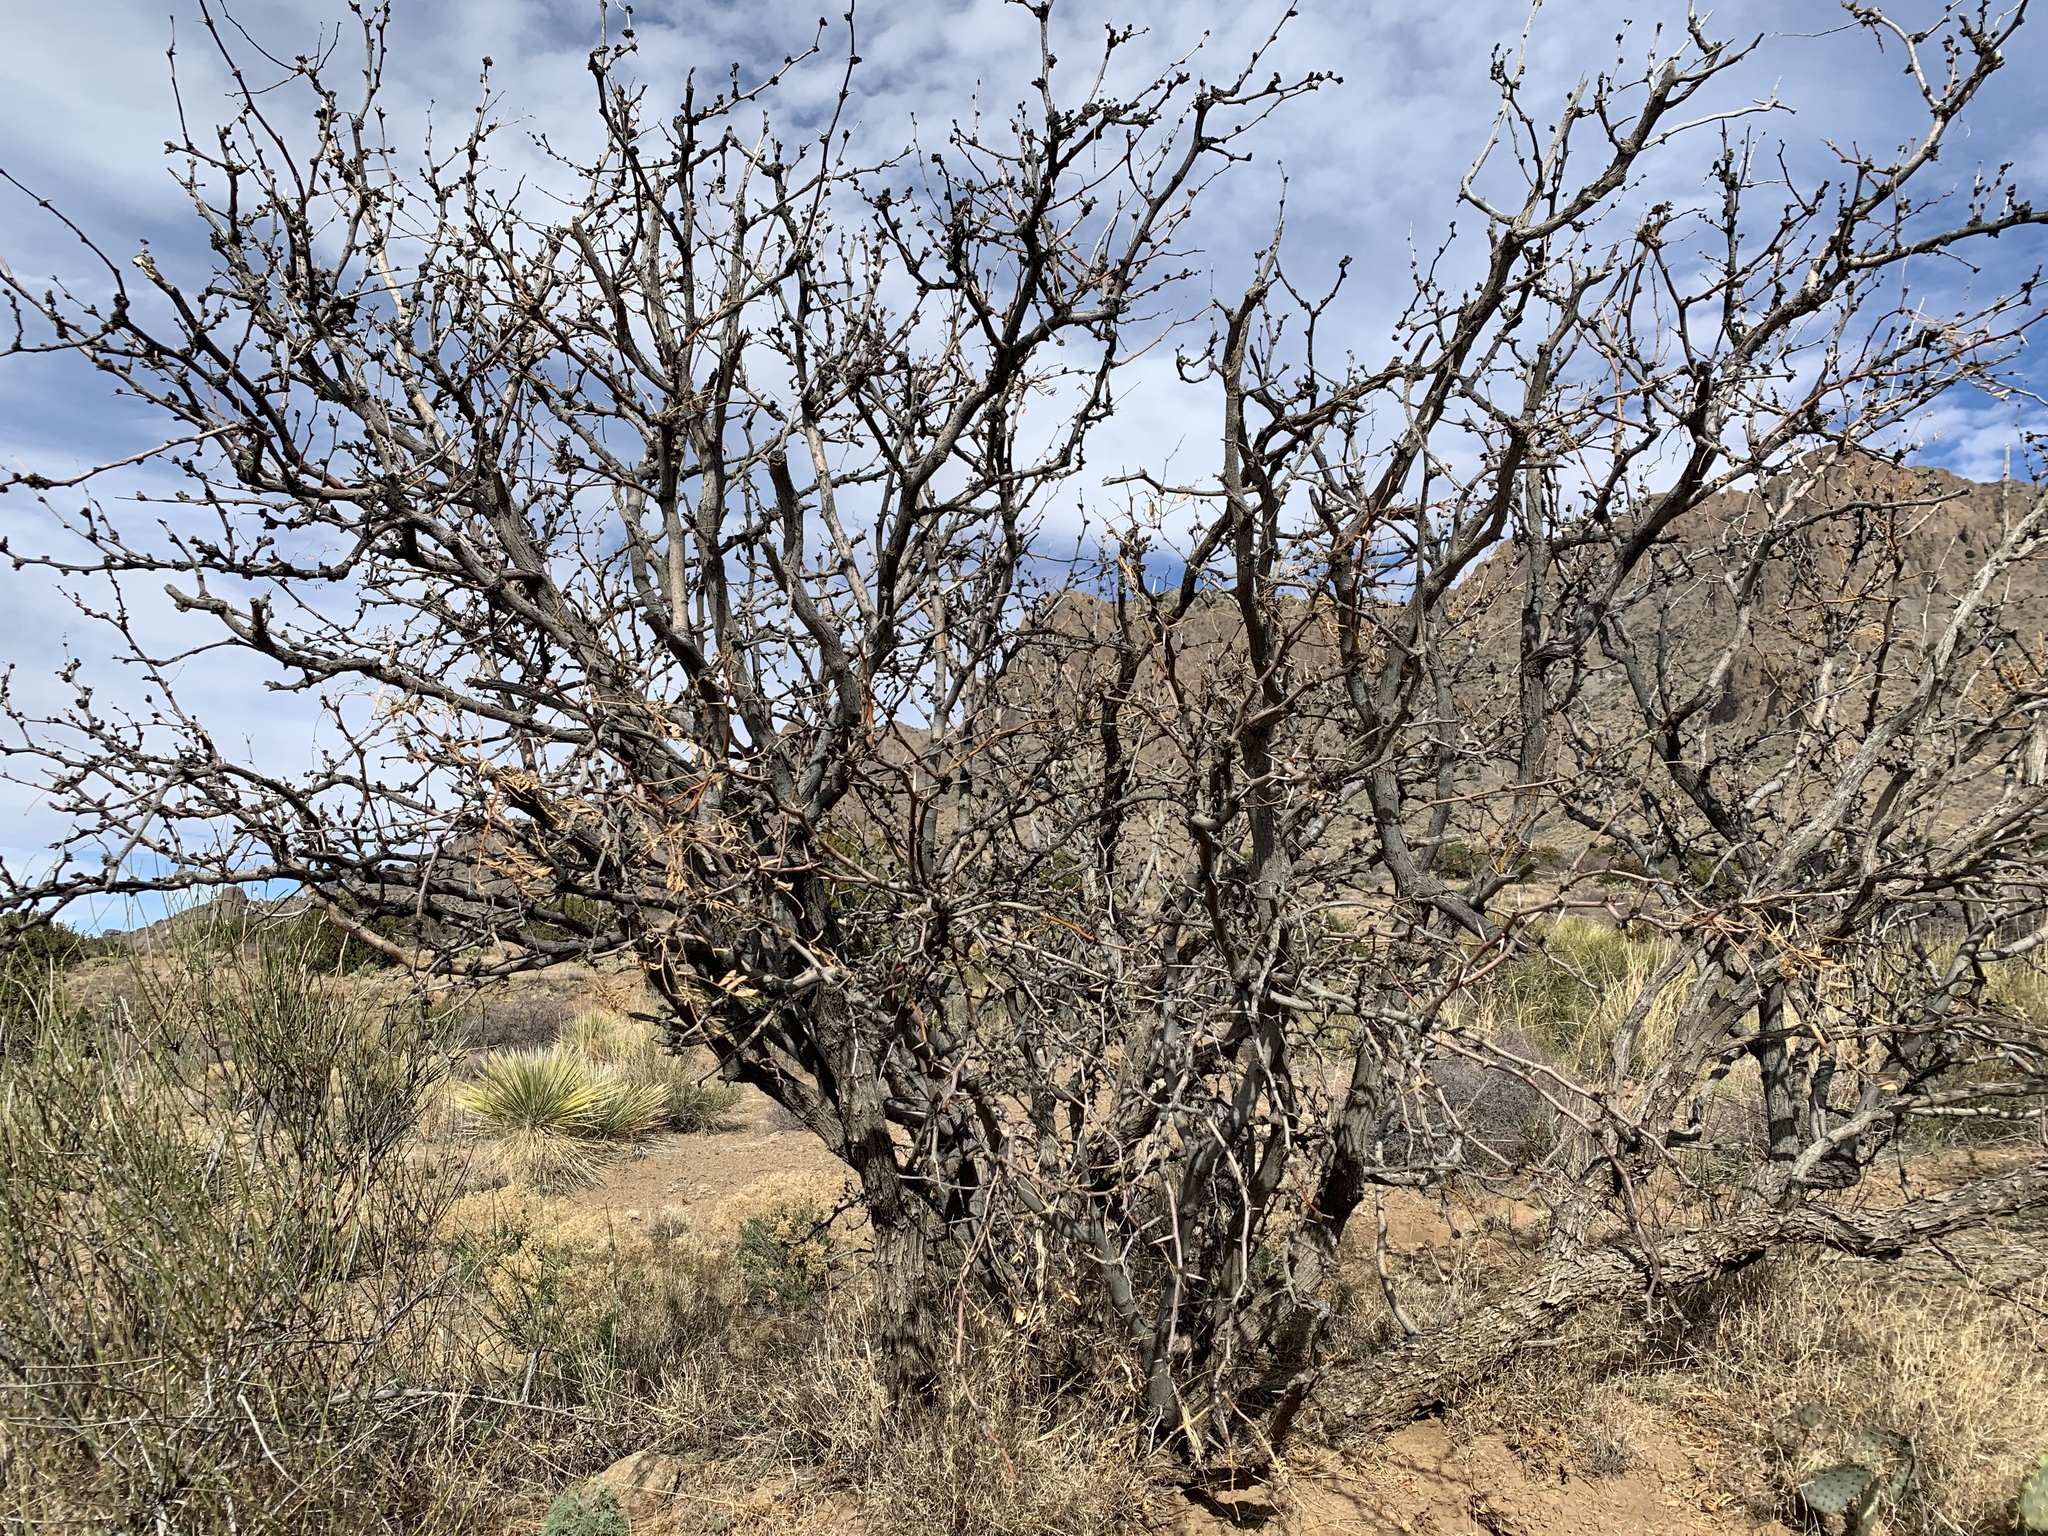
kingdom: Plantae
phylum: Tracheophyta
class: Magnoliopsida
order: Fabales
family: Fabaceae
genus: Prosopis
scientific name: Prosopis glandulosa
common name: Honey mesquite
